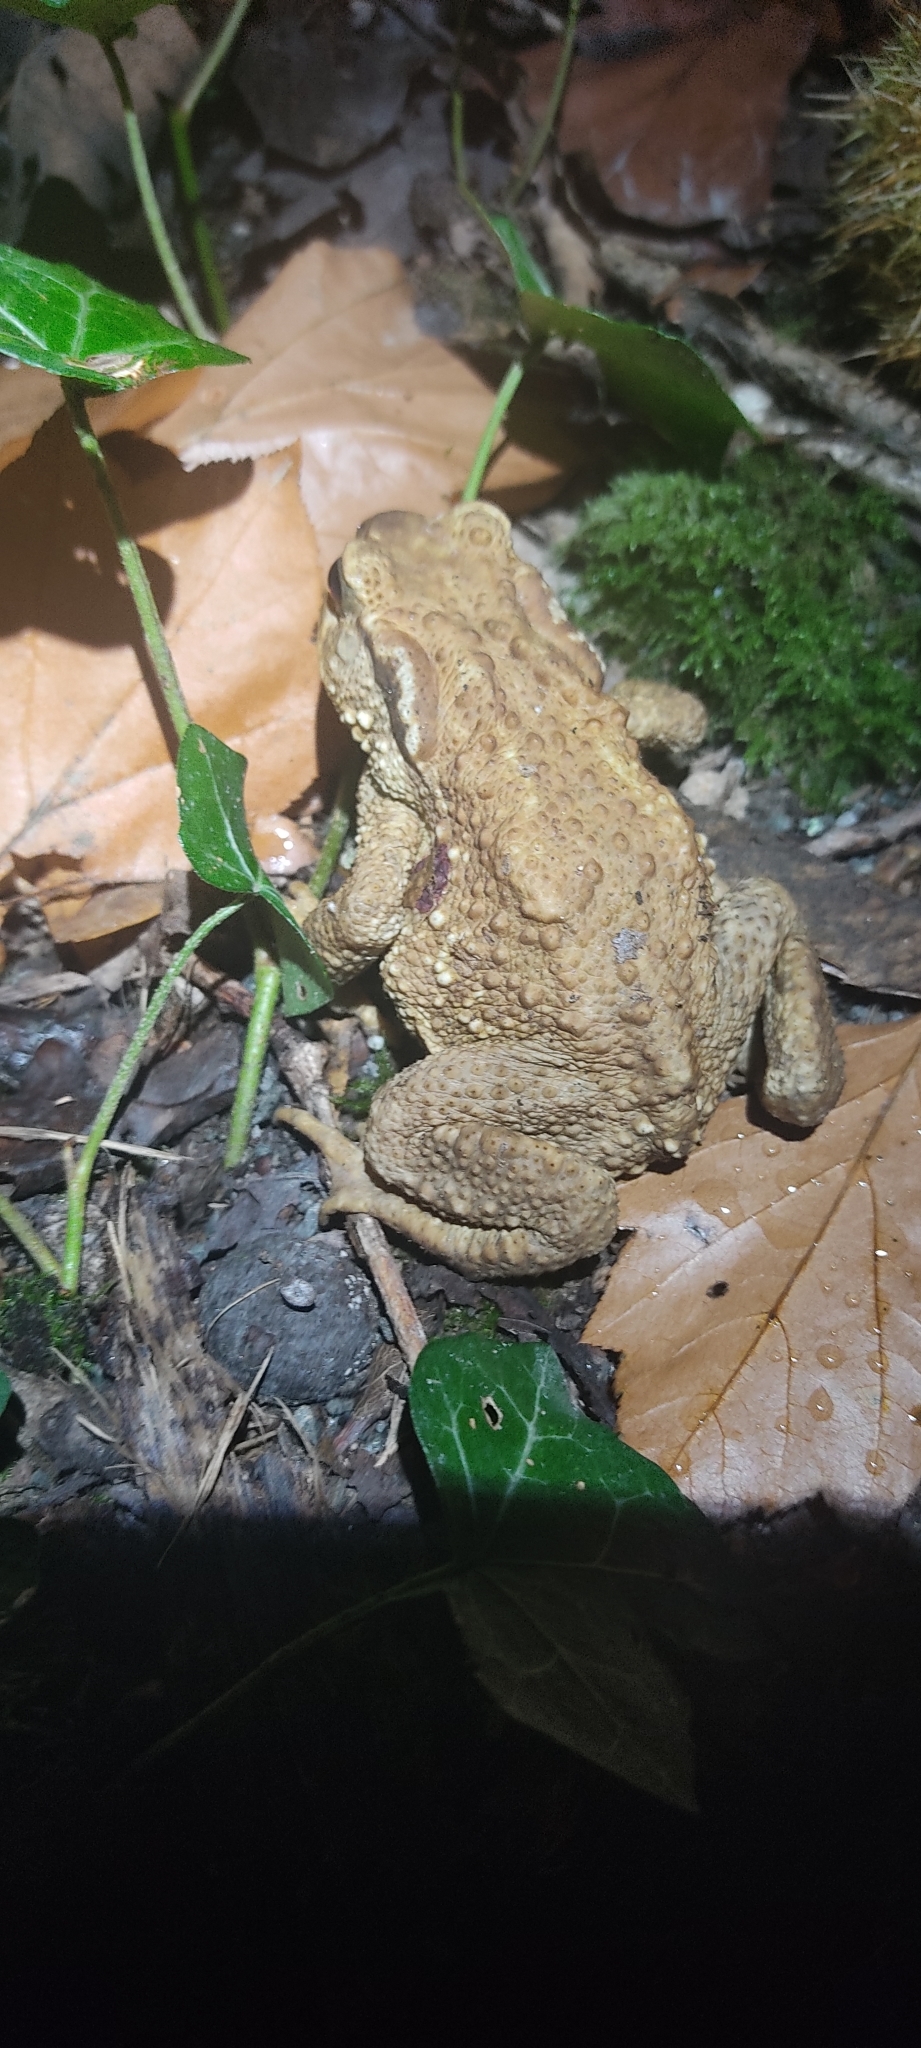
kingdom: Animalia
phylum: Chordata
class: Amphibia
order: Anura
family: Bufonidae
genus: Bufo
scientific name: Bufo spinosus
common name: Western common toad
